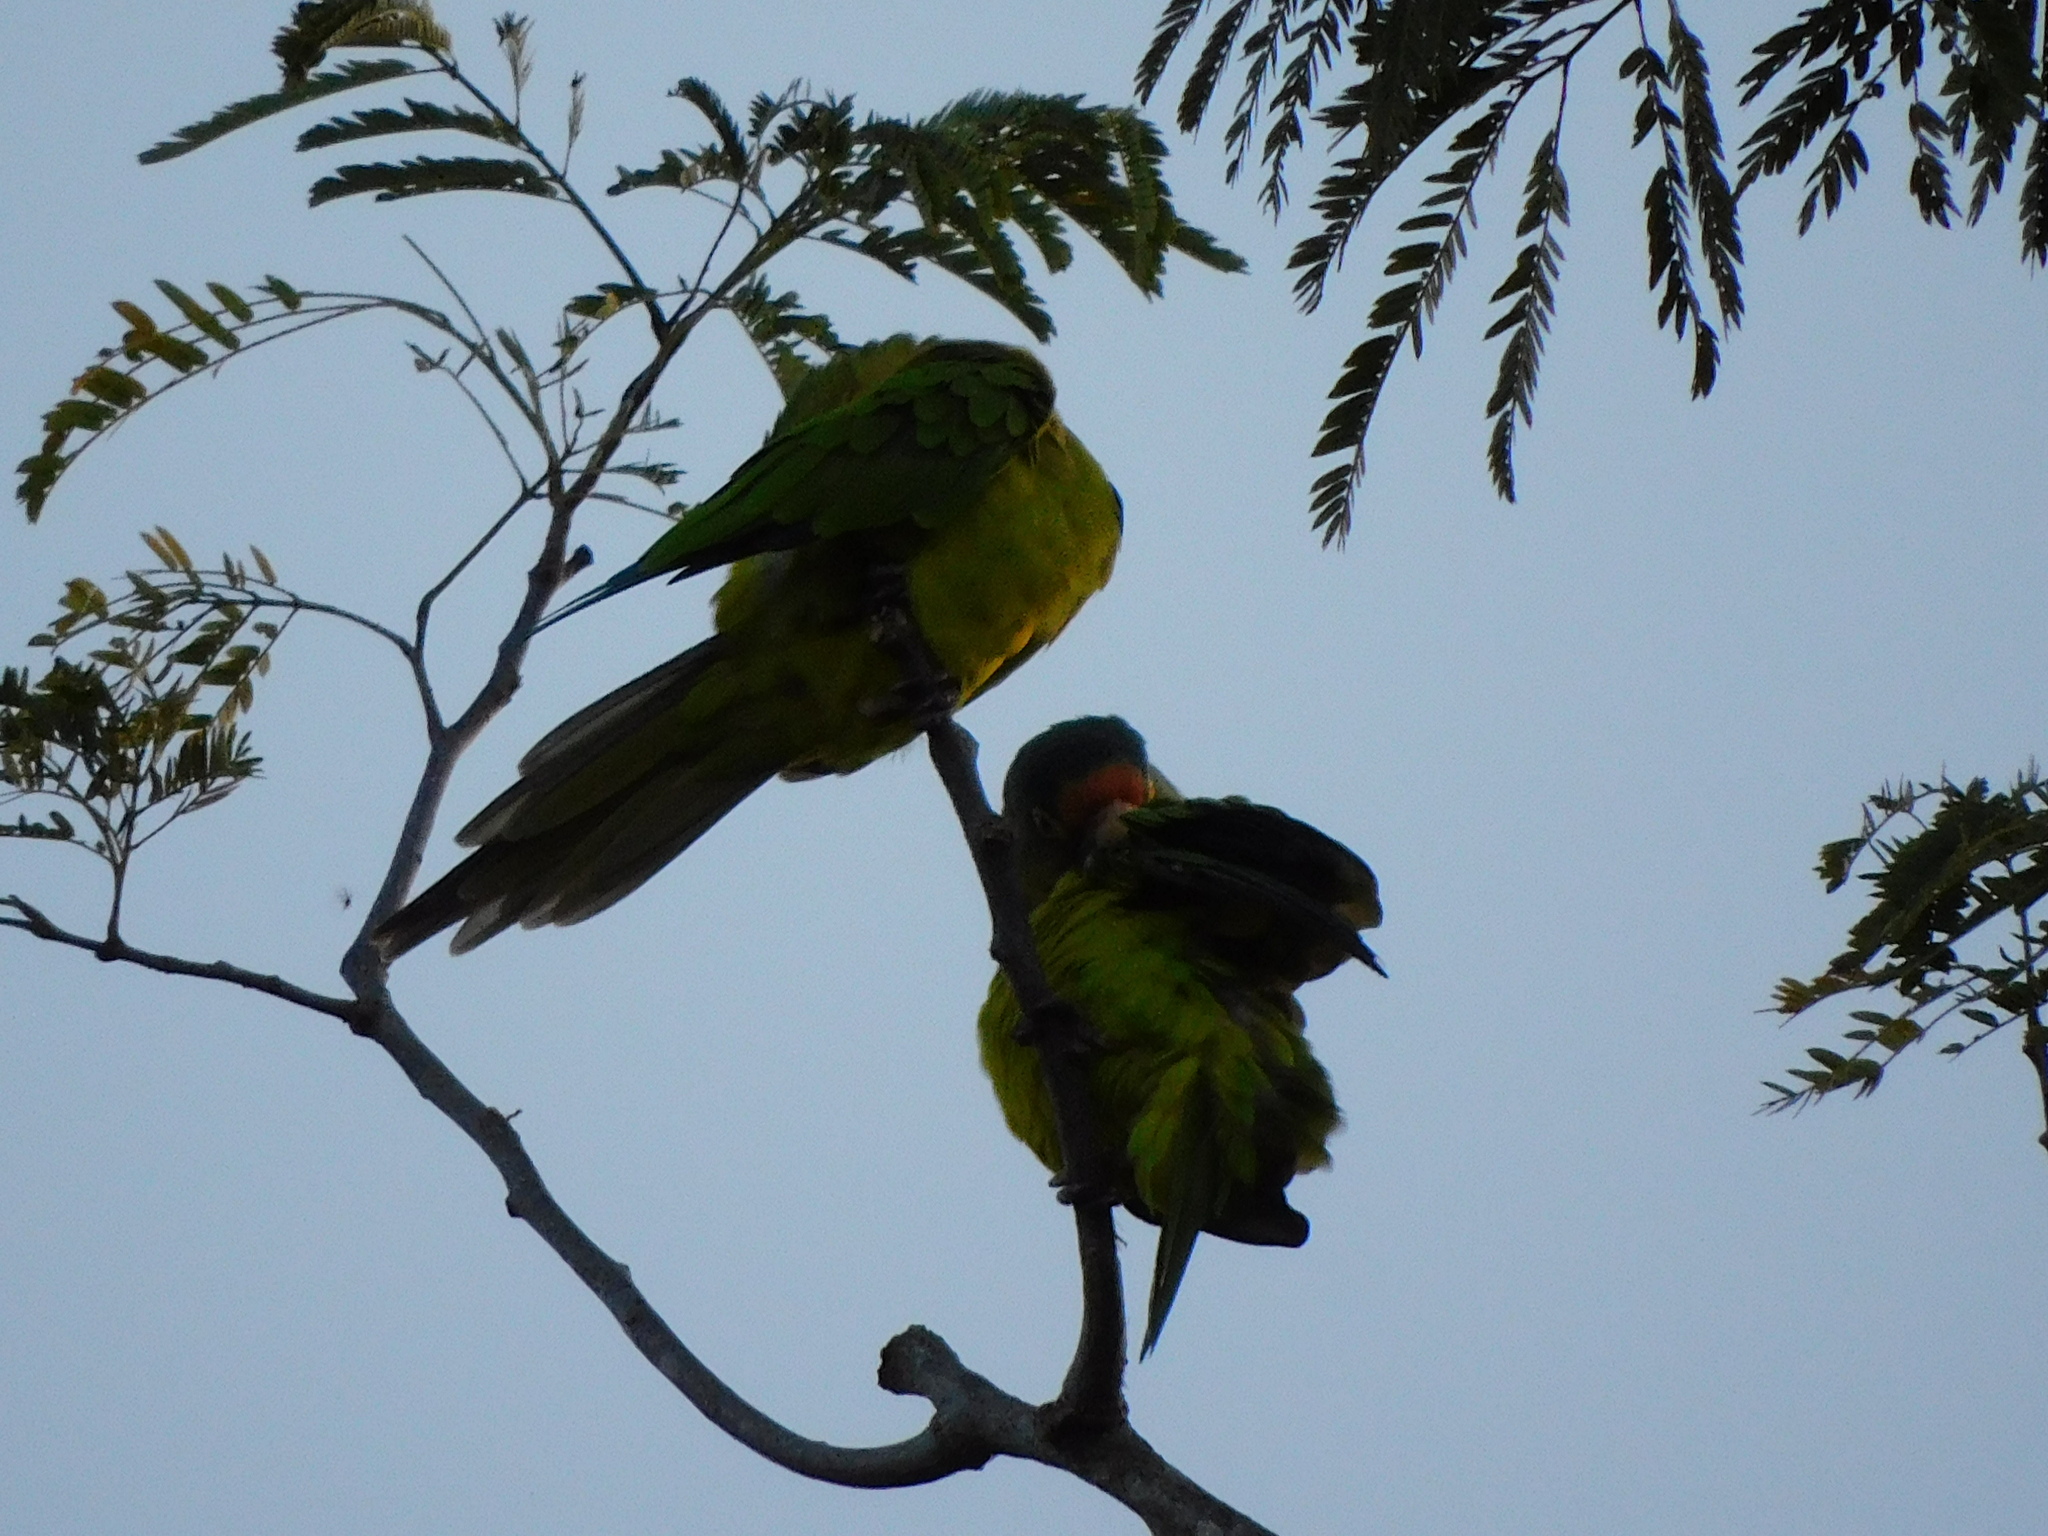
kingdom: Animalia
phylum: Chordata
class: Aves
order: Psittaciformes
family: Psittacidae
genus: Aratinga
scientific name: Aratinga canicularis
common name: Orange-fronted parakeet
